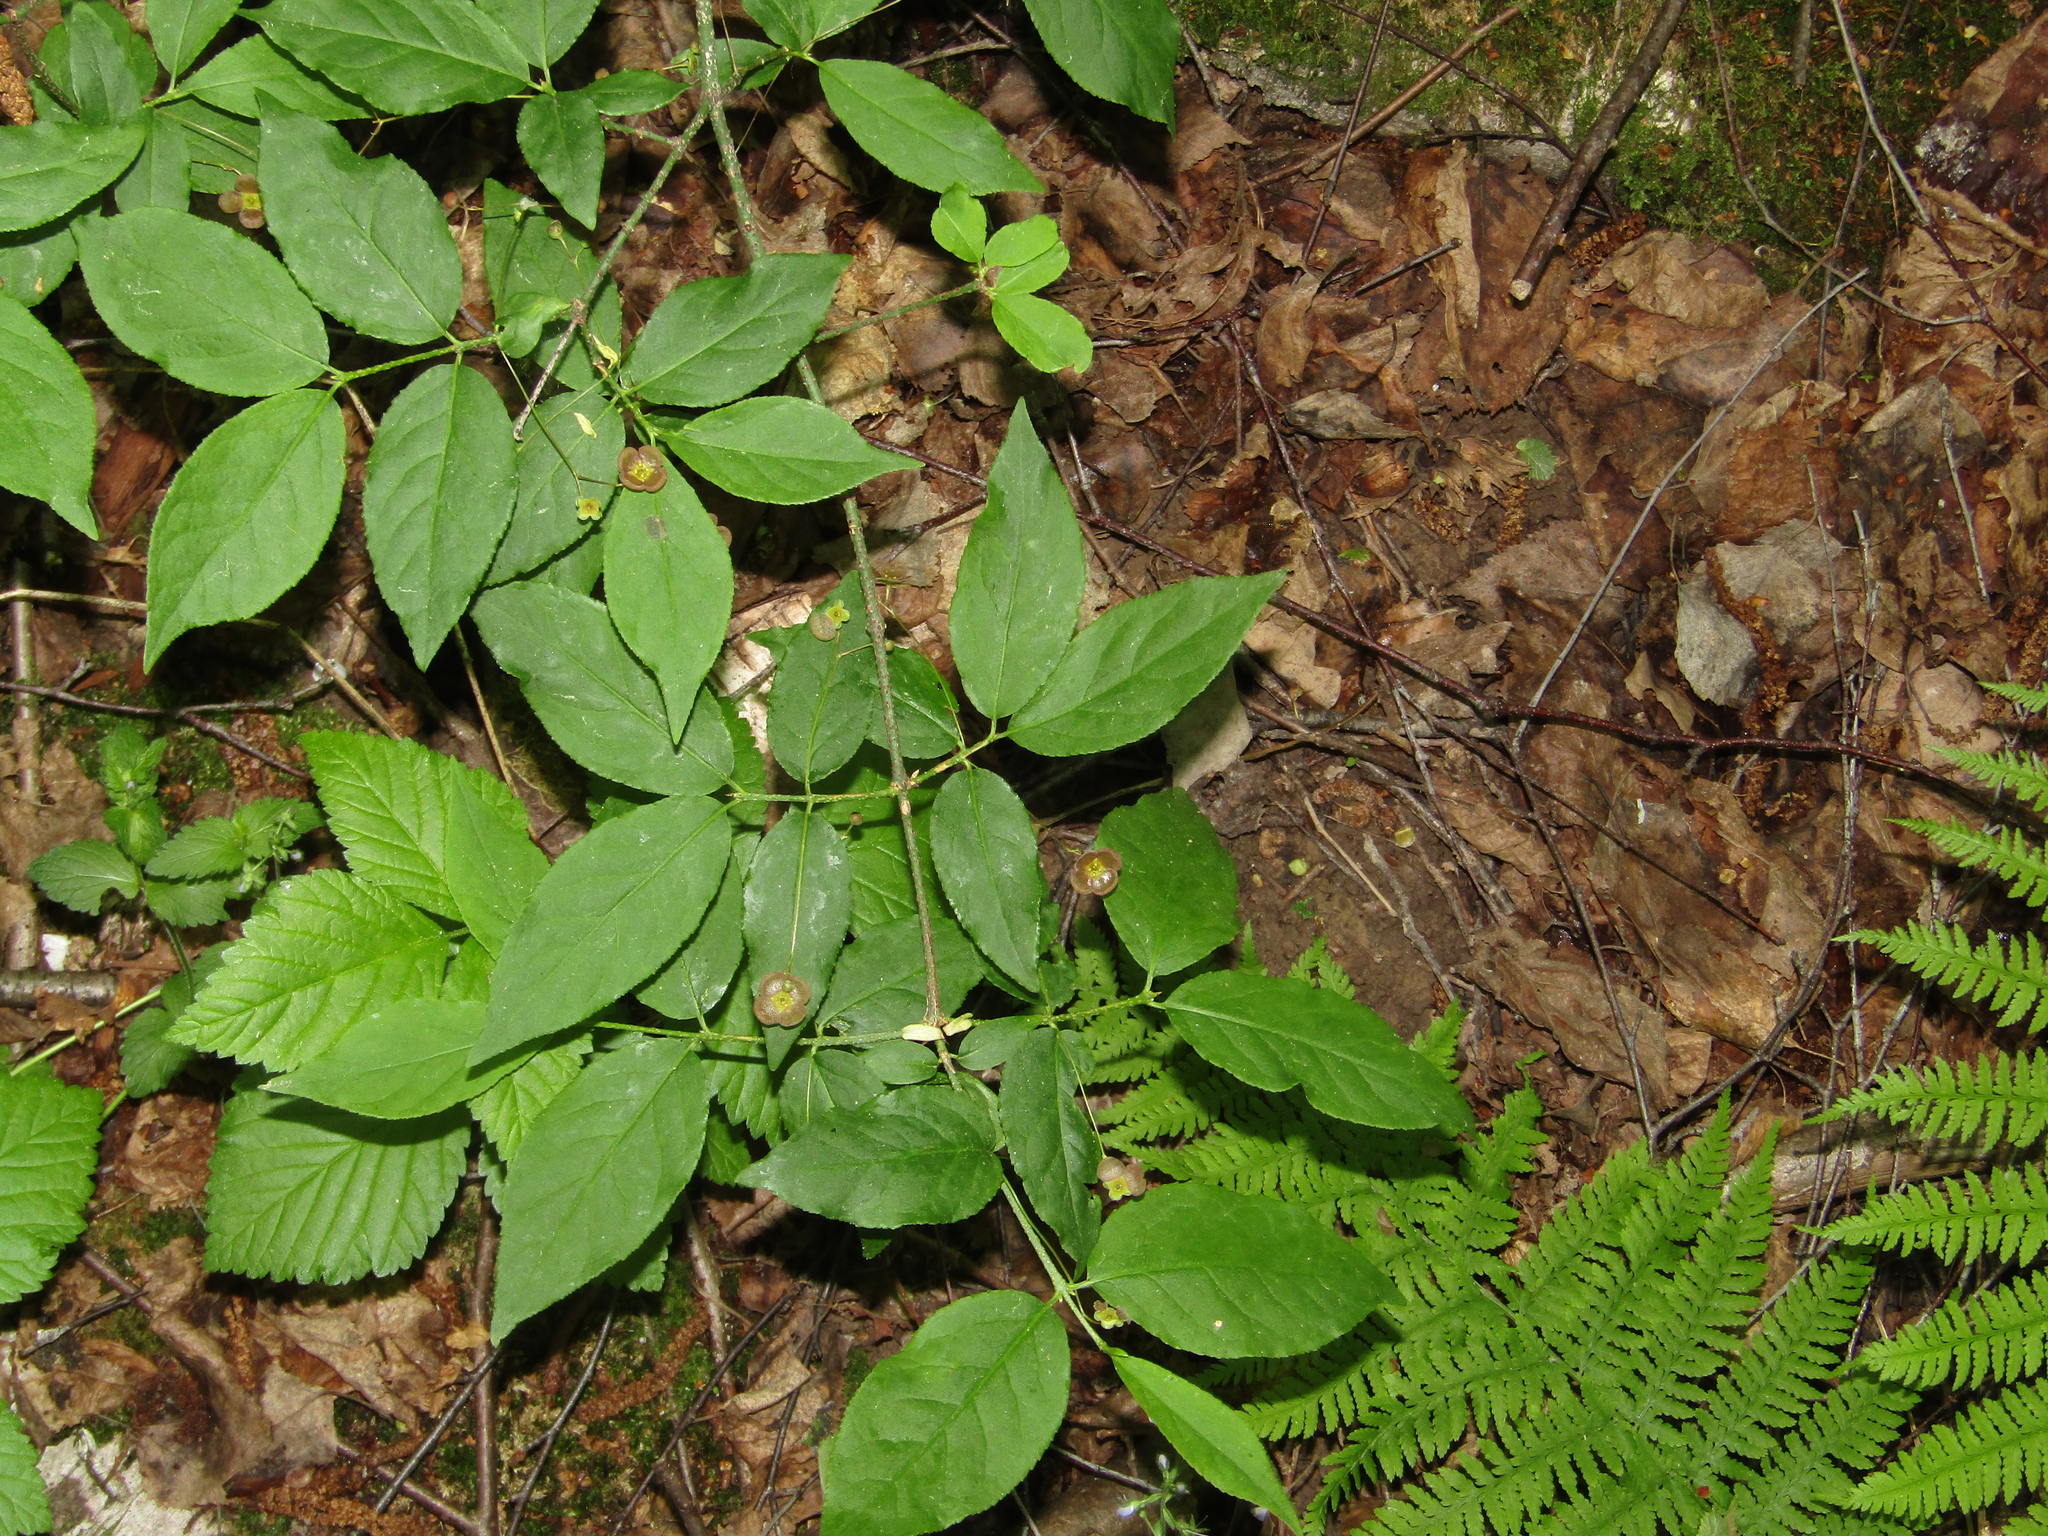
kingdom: Plantae
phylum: Tracheophyta
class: Magnoliopsida
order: Celastrales
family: Celastraceae
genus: Euonymus
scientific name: Euonymus verrucosus
